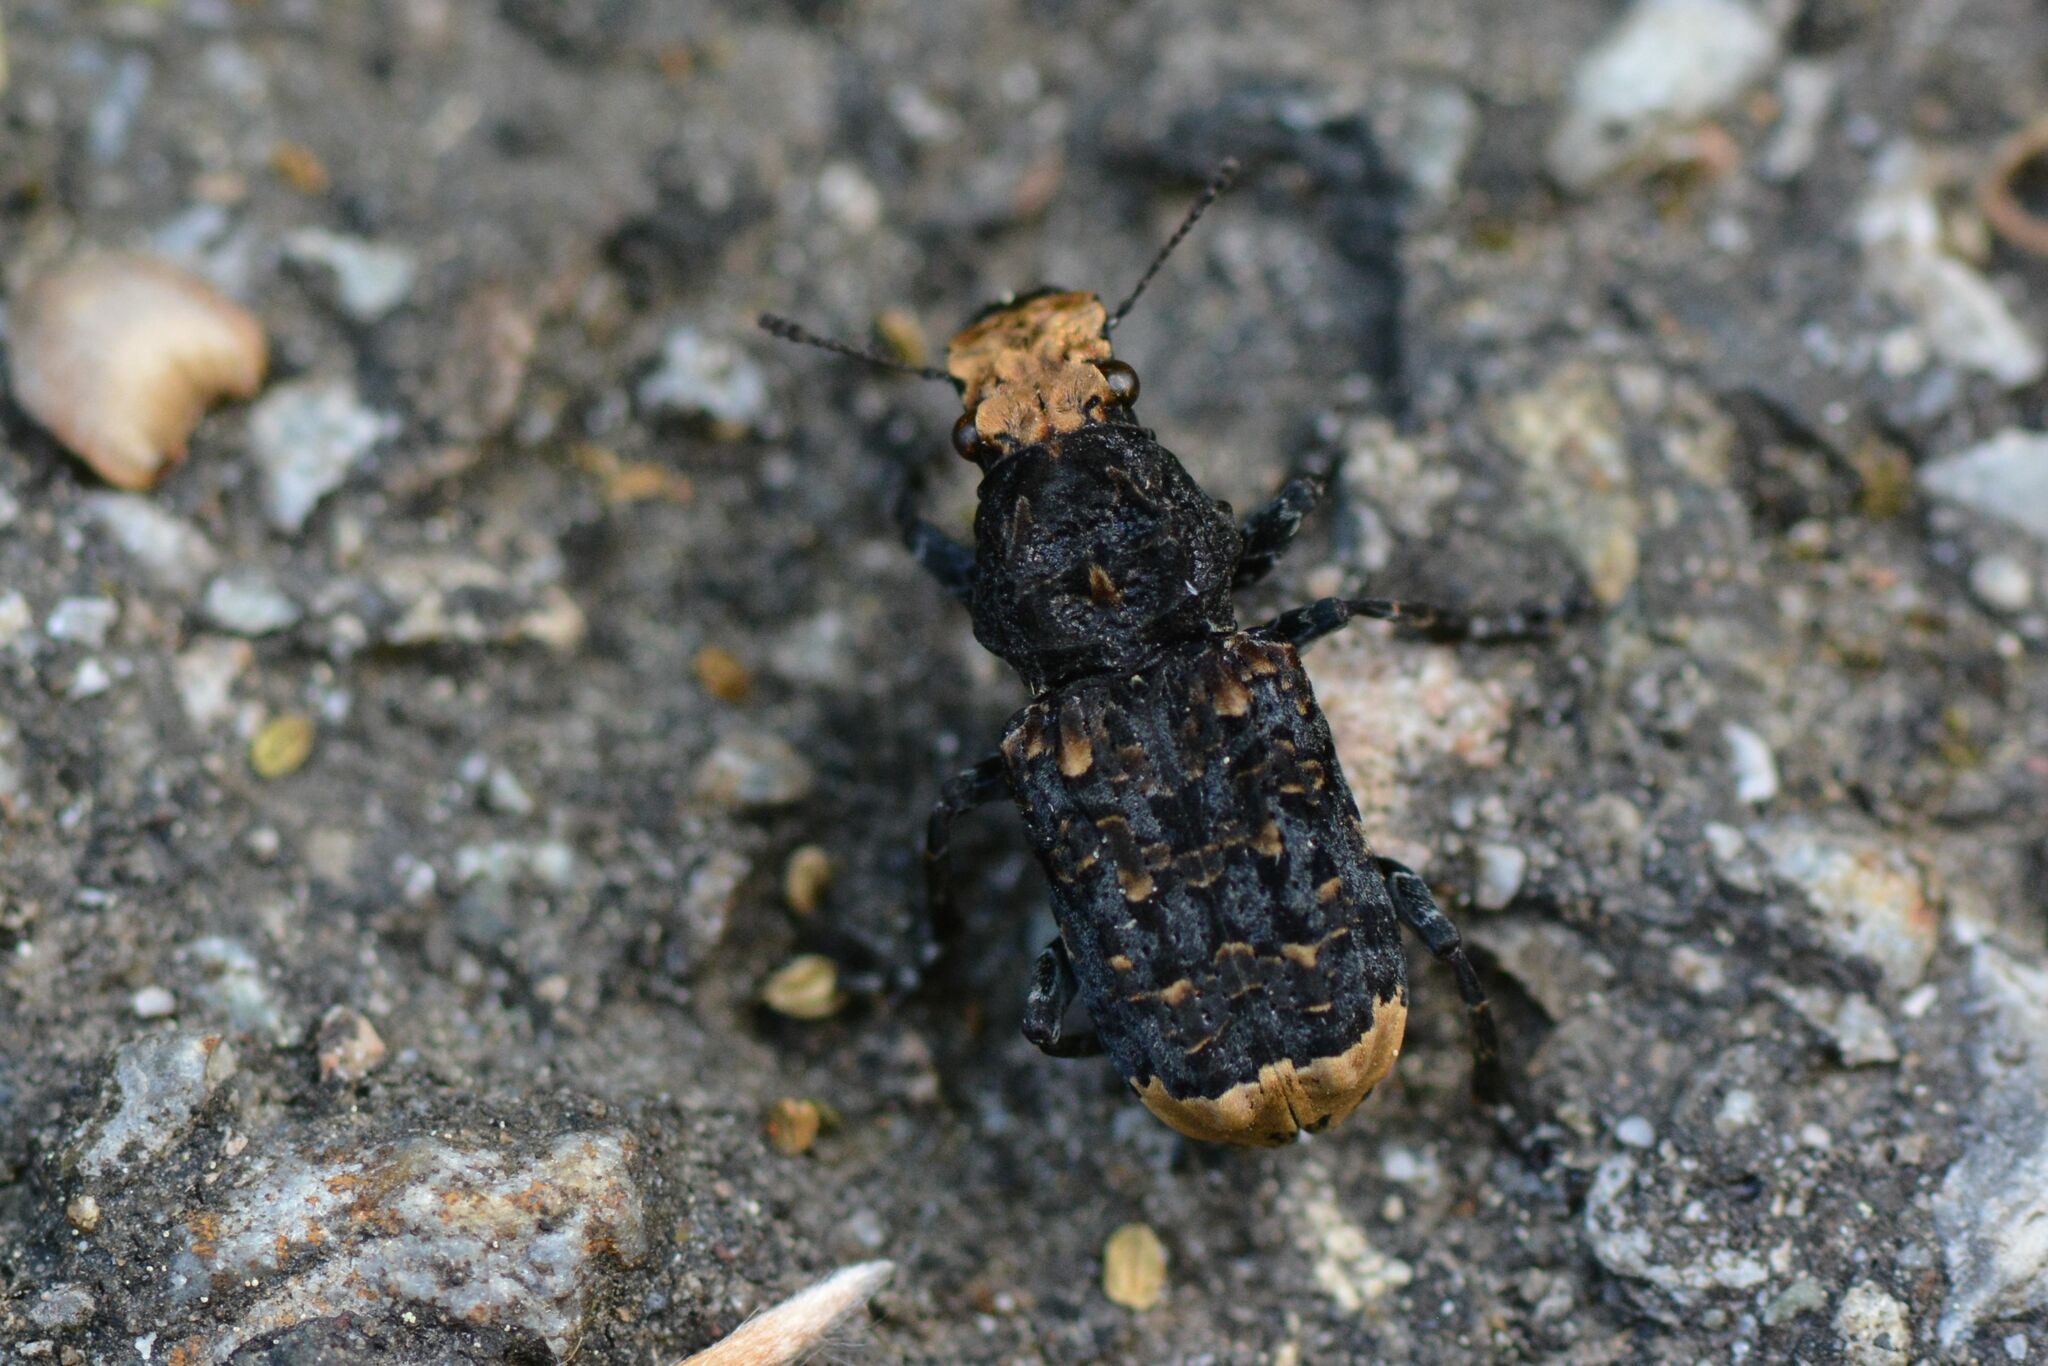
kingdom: Animalia
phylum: Arthropoda
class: Insecta
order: Coleoptera
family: Anthribidae
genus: Platyrhinus
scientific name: Platyrhinus resinosus
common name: Cramp-ball fungus weevil
